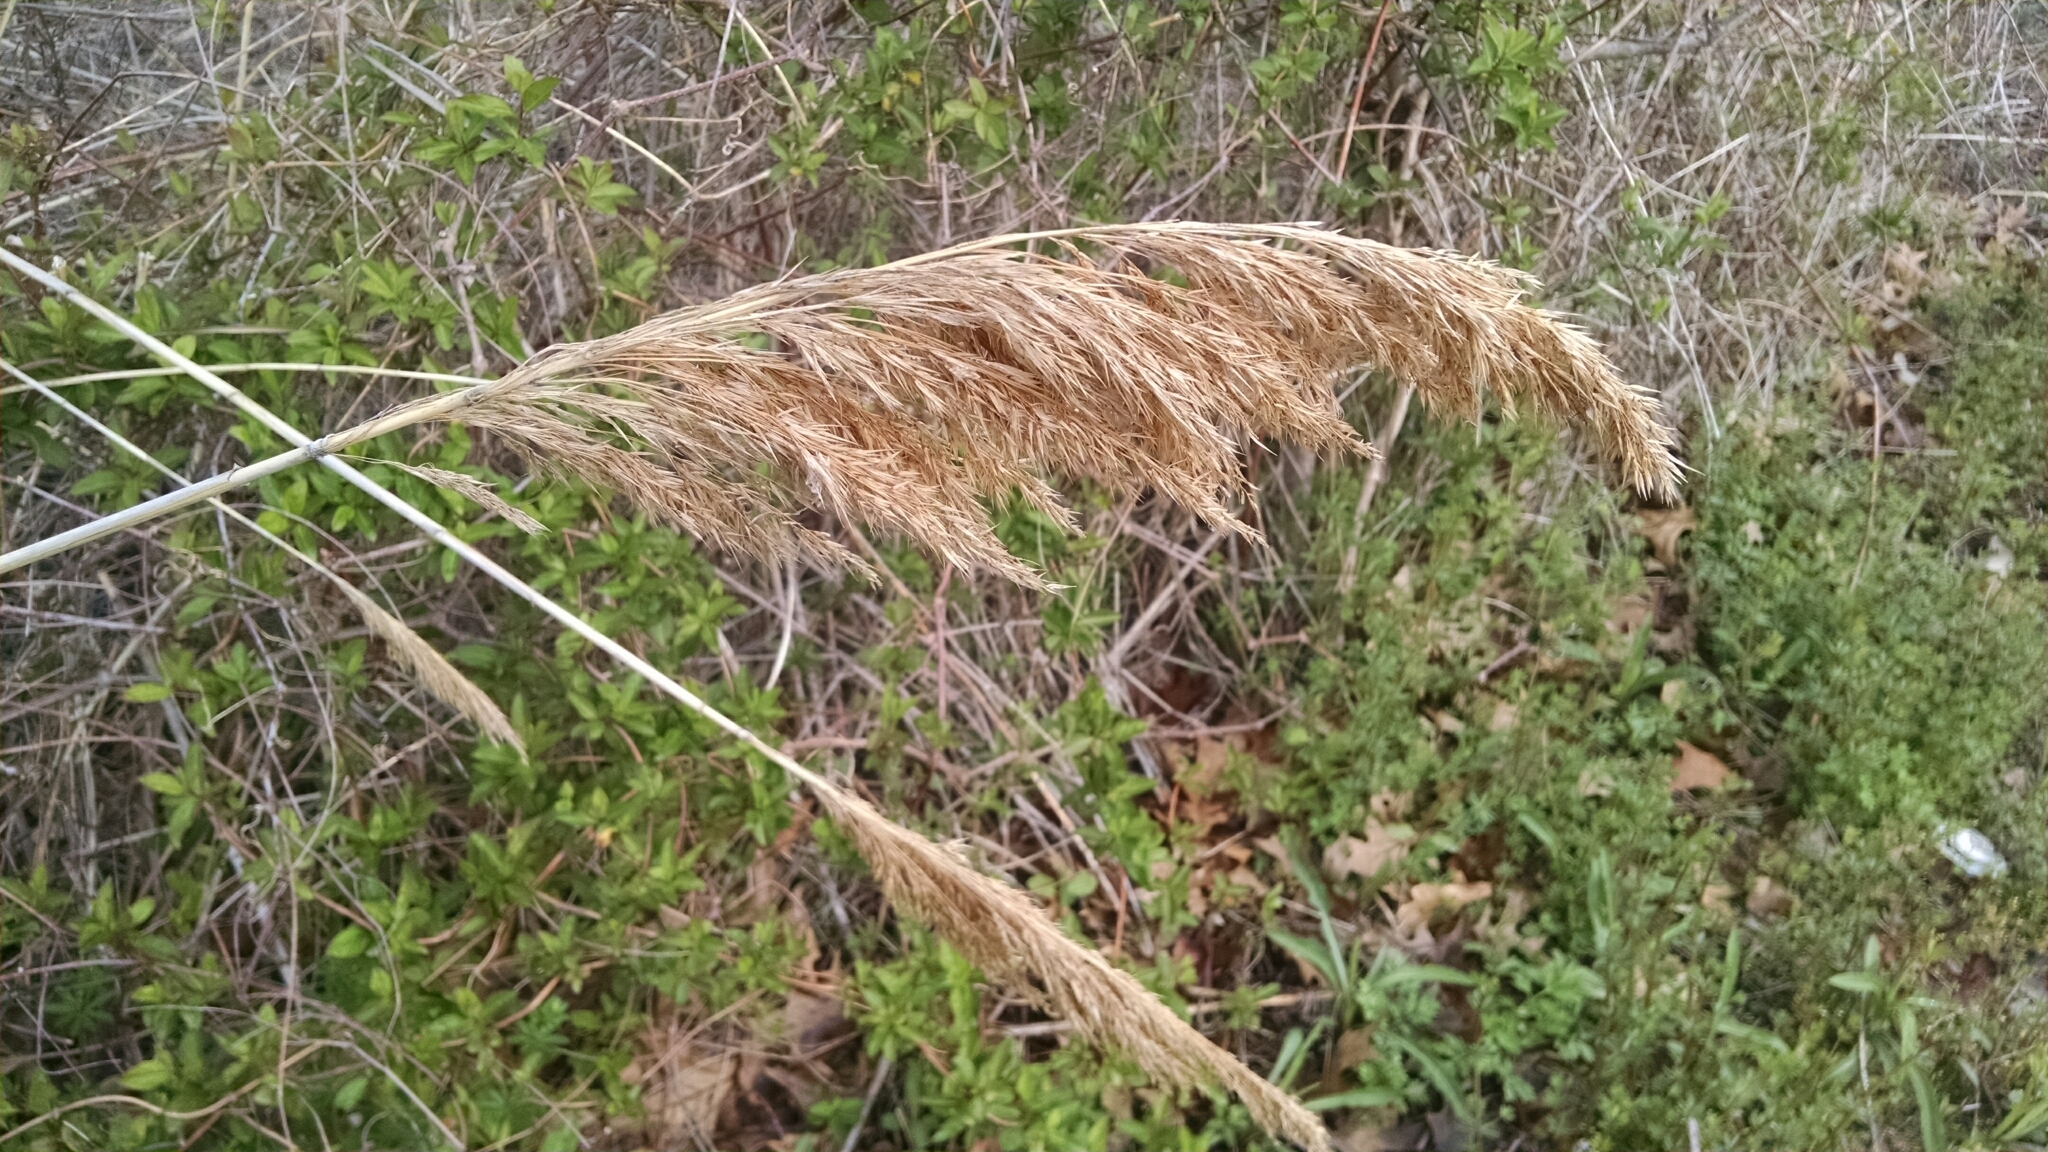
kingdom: Plantae
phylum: Tracheophyta
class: Liliopsida
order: Poales
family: Poaceae
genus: Phragmites
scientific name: Phragmites australis
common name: Common reed
